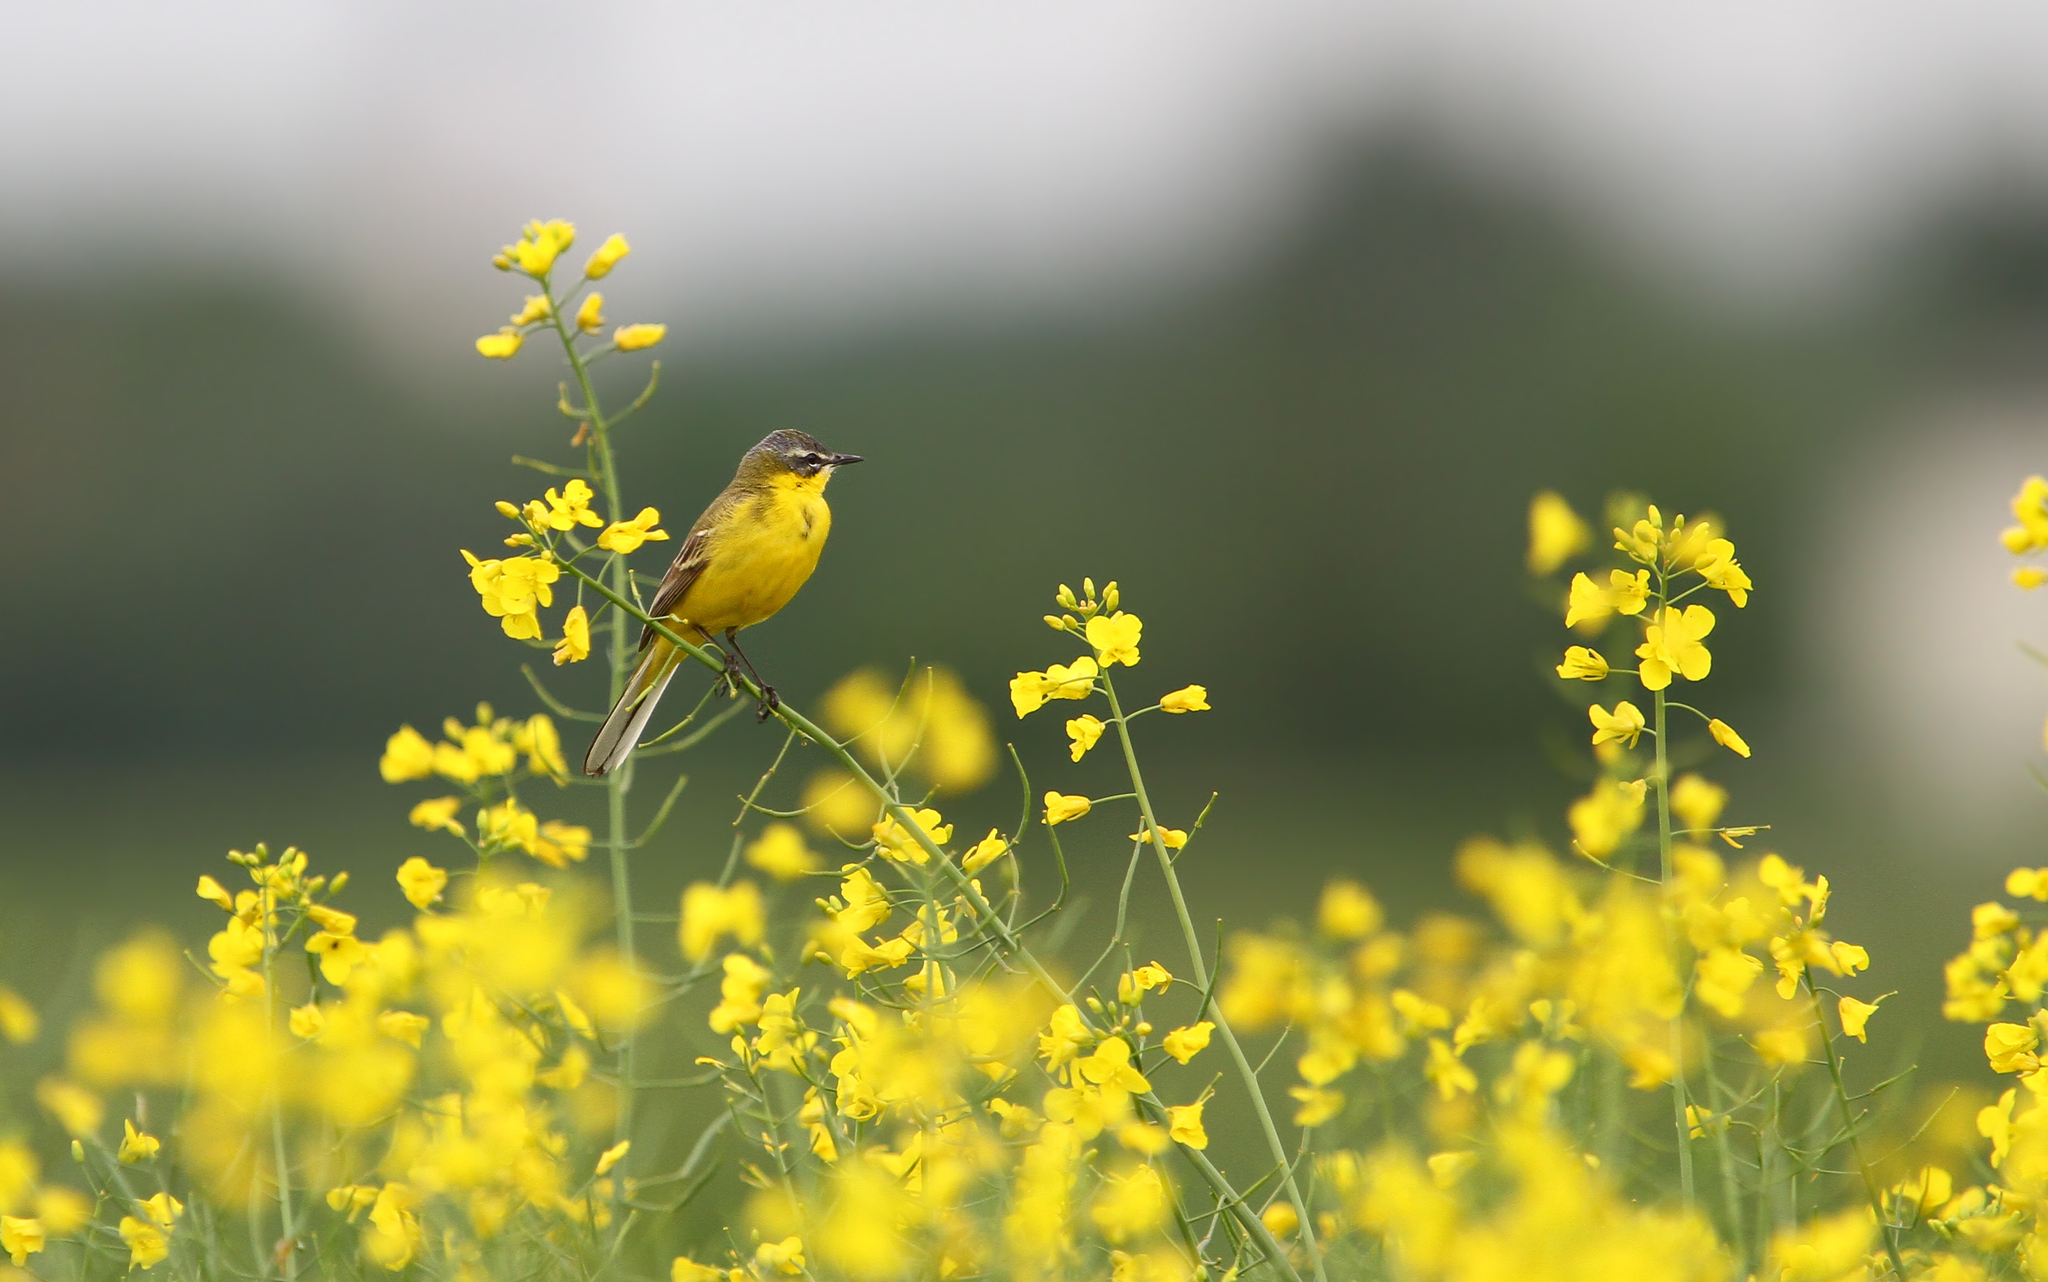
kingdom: Animalia
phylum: Chordata
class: Aves
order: Passeriformes
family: Motacillidae
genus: Motacilla
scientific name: Motacilla flava
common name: Western yellow wagtail
